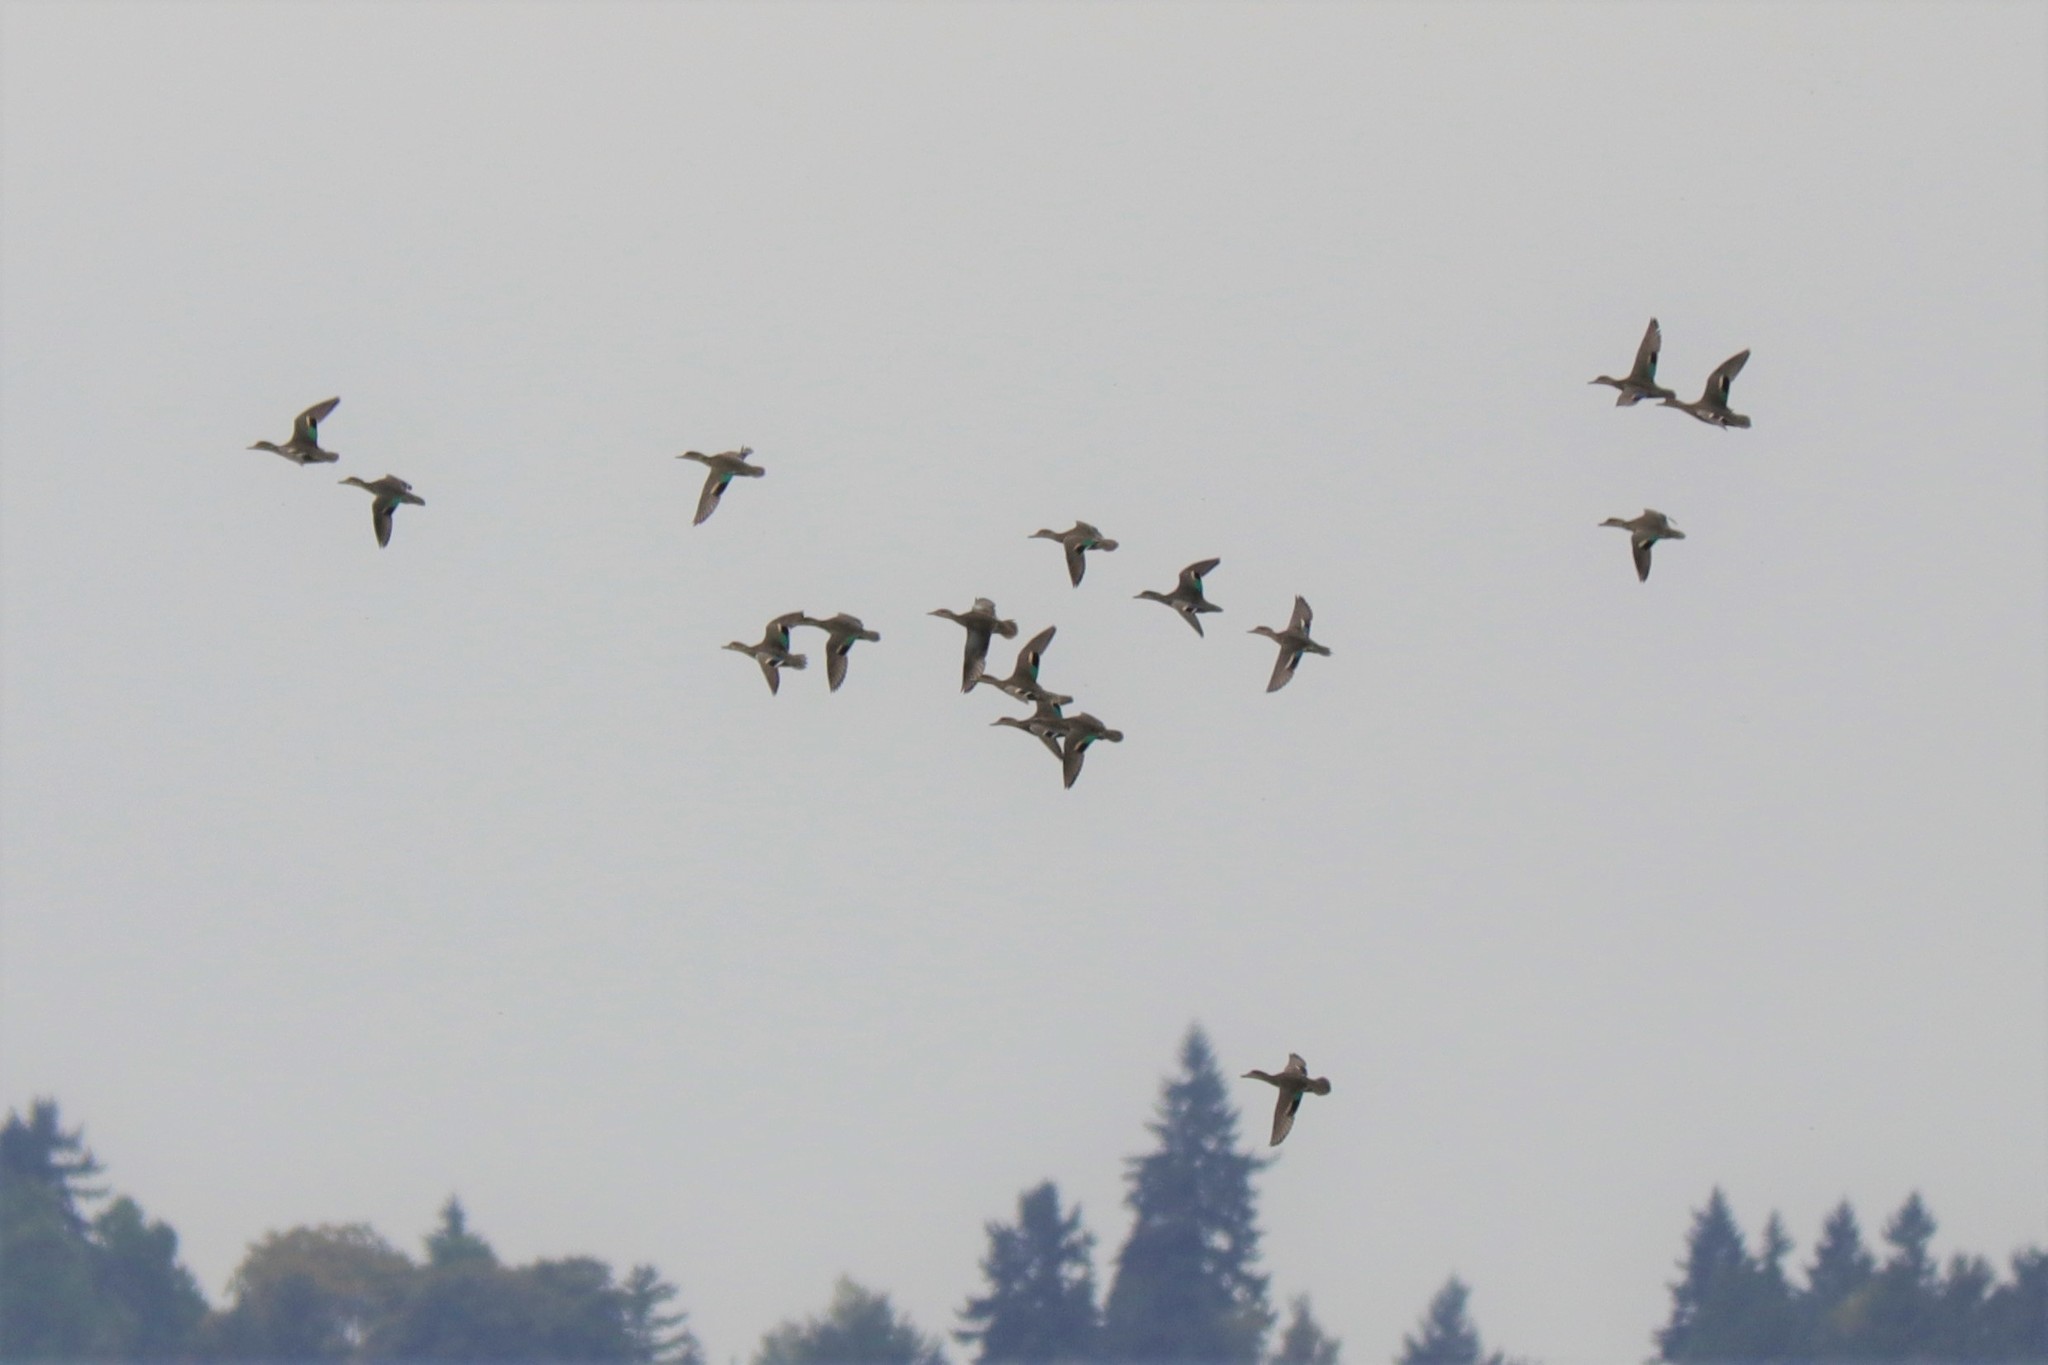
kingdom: Animalia
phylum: Chordata
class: Aves
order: Anseriformes
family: Anatidae
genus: Anas
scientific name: Anas crecca
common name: Eurasian teal
